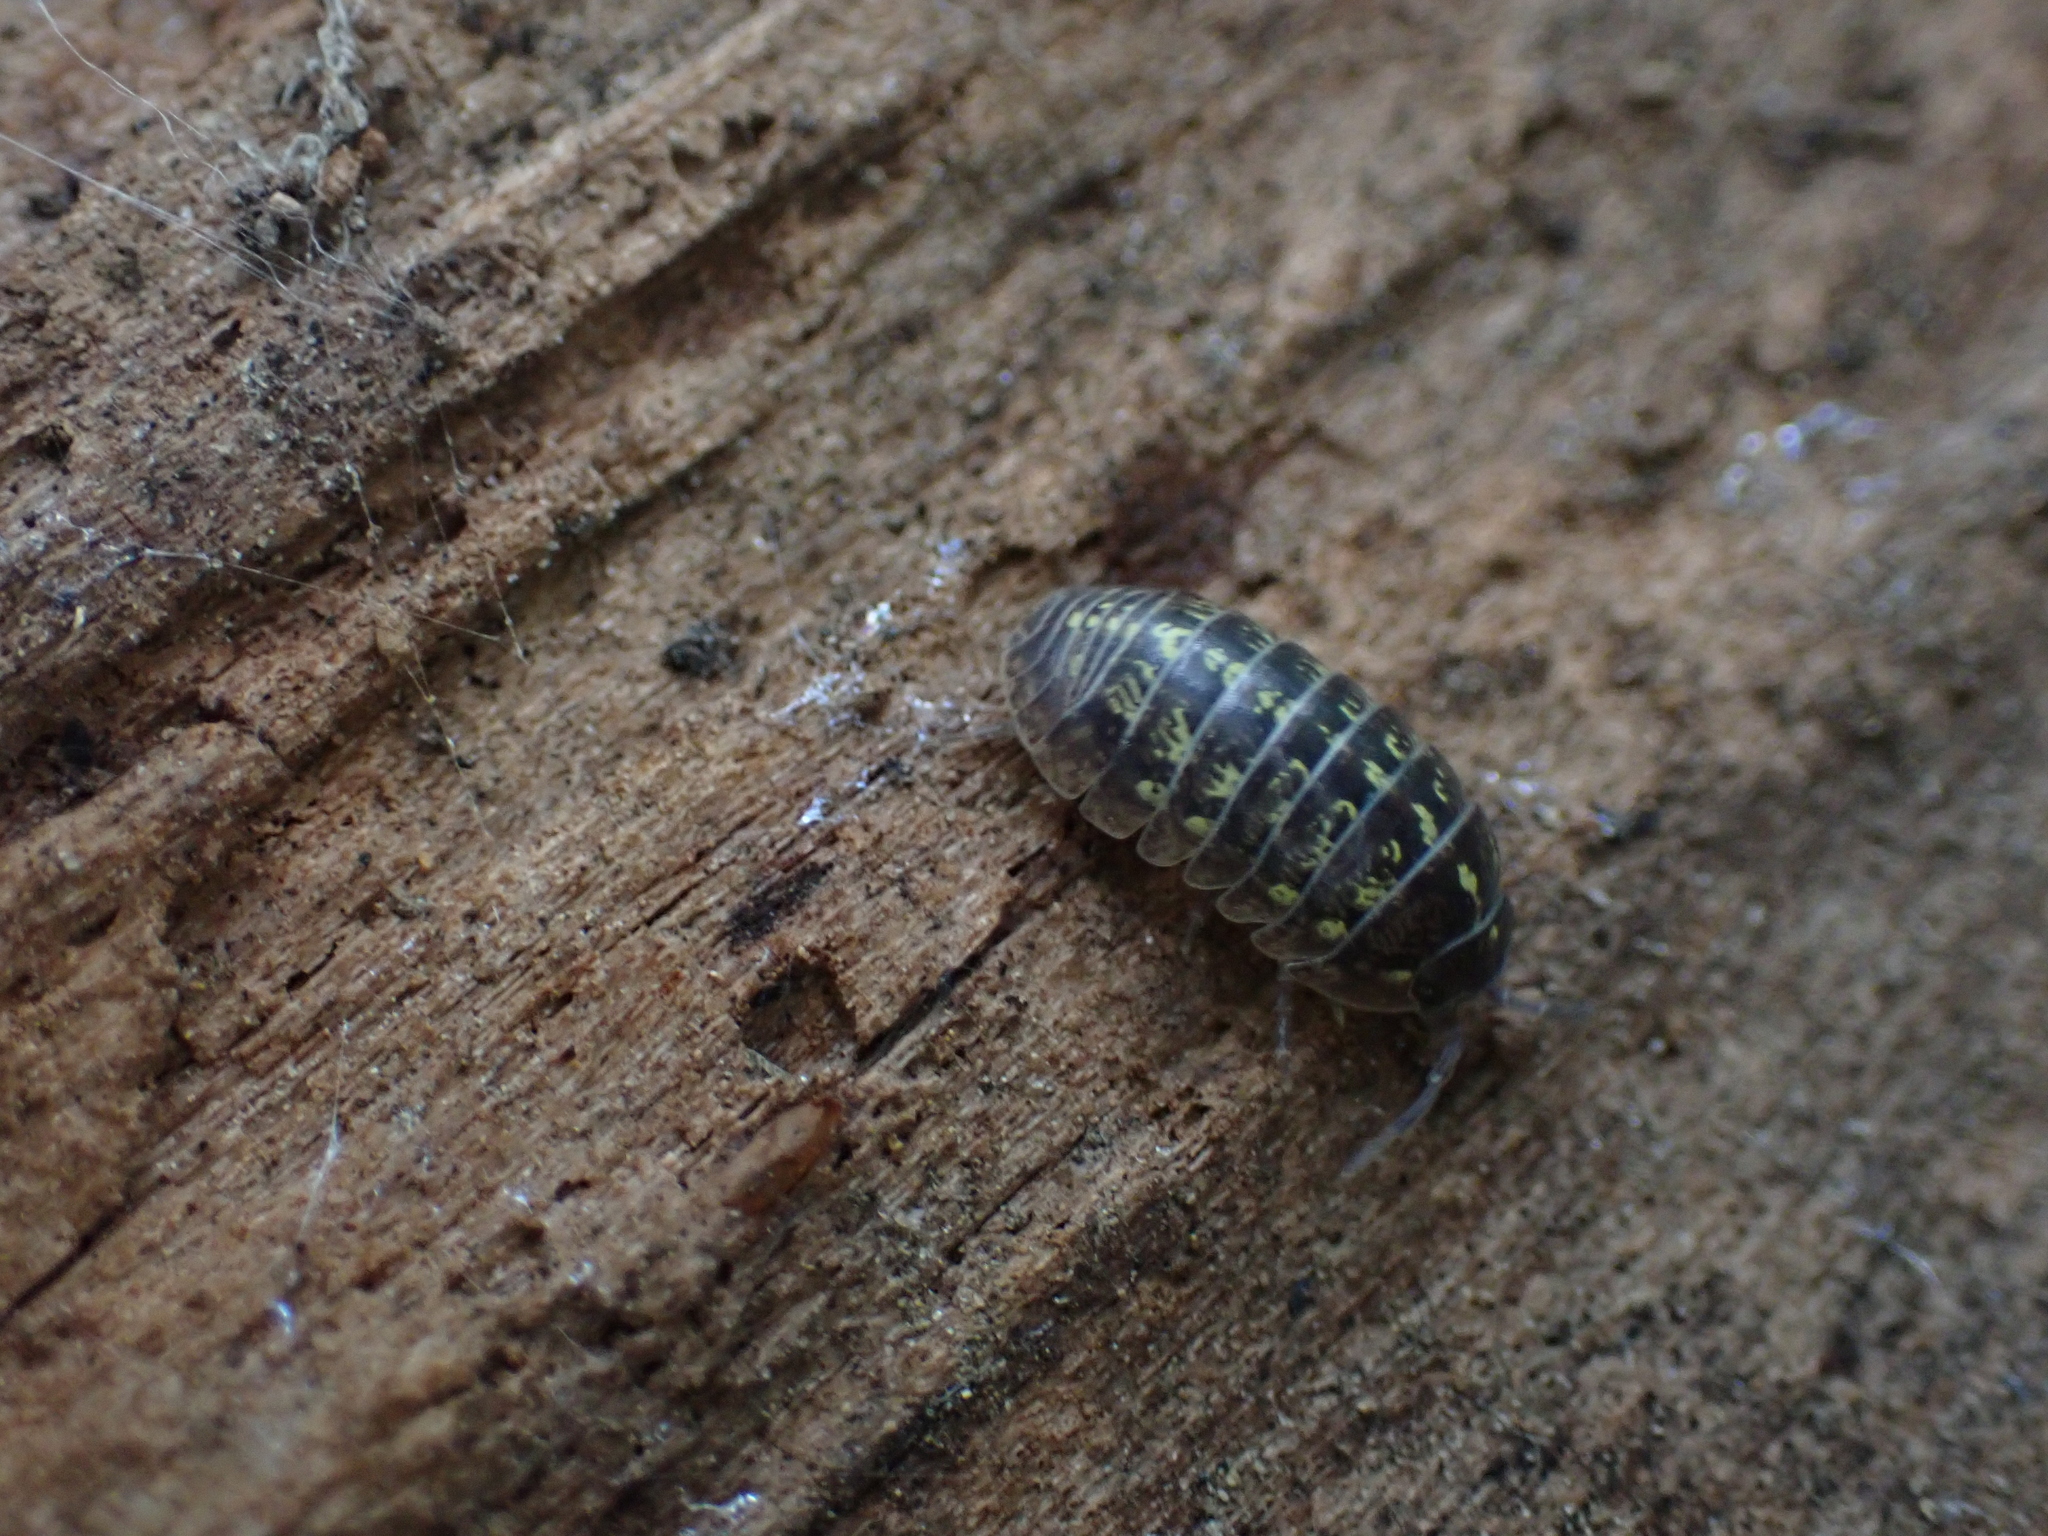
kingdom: Animalia
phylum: Arthropoda
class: Malacostraca
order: Isopoda
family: Armadillidiidae
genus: Armadillidium
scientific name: Armadillidium vulgare
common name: Common pill woodlouse
